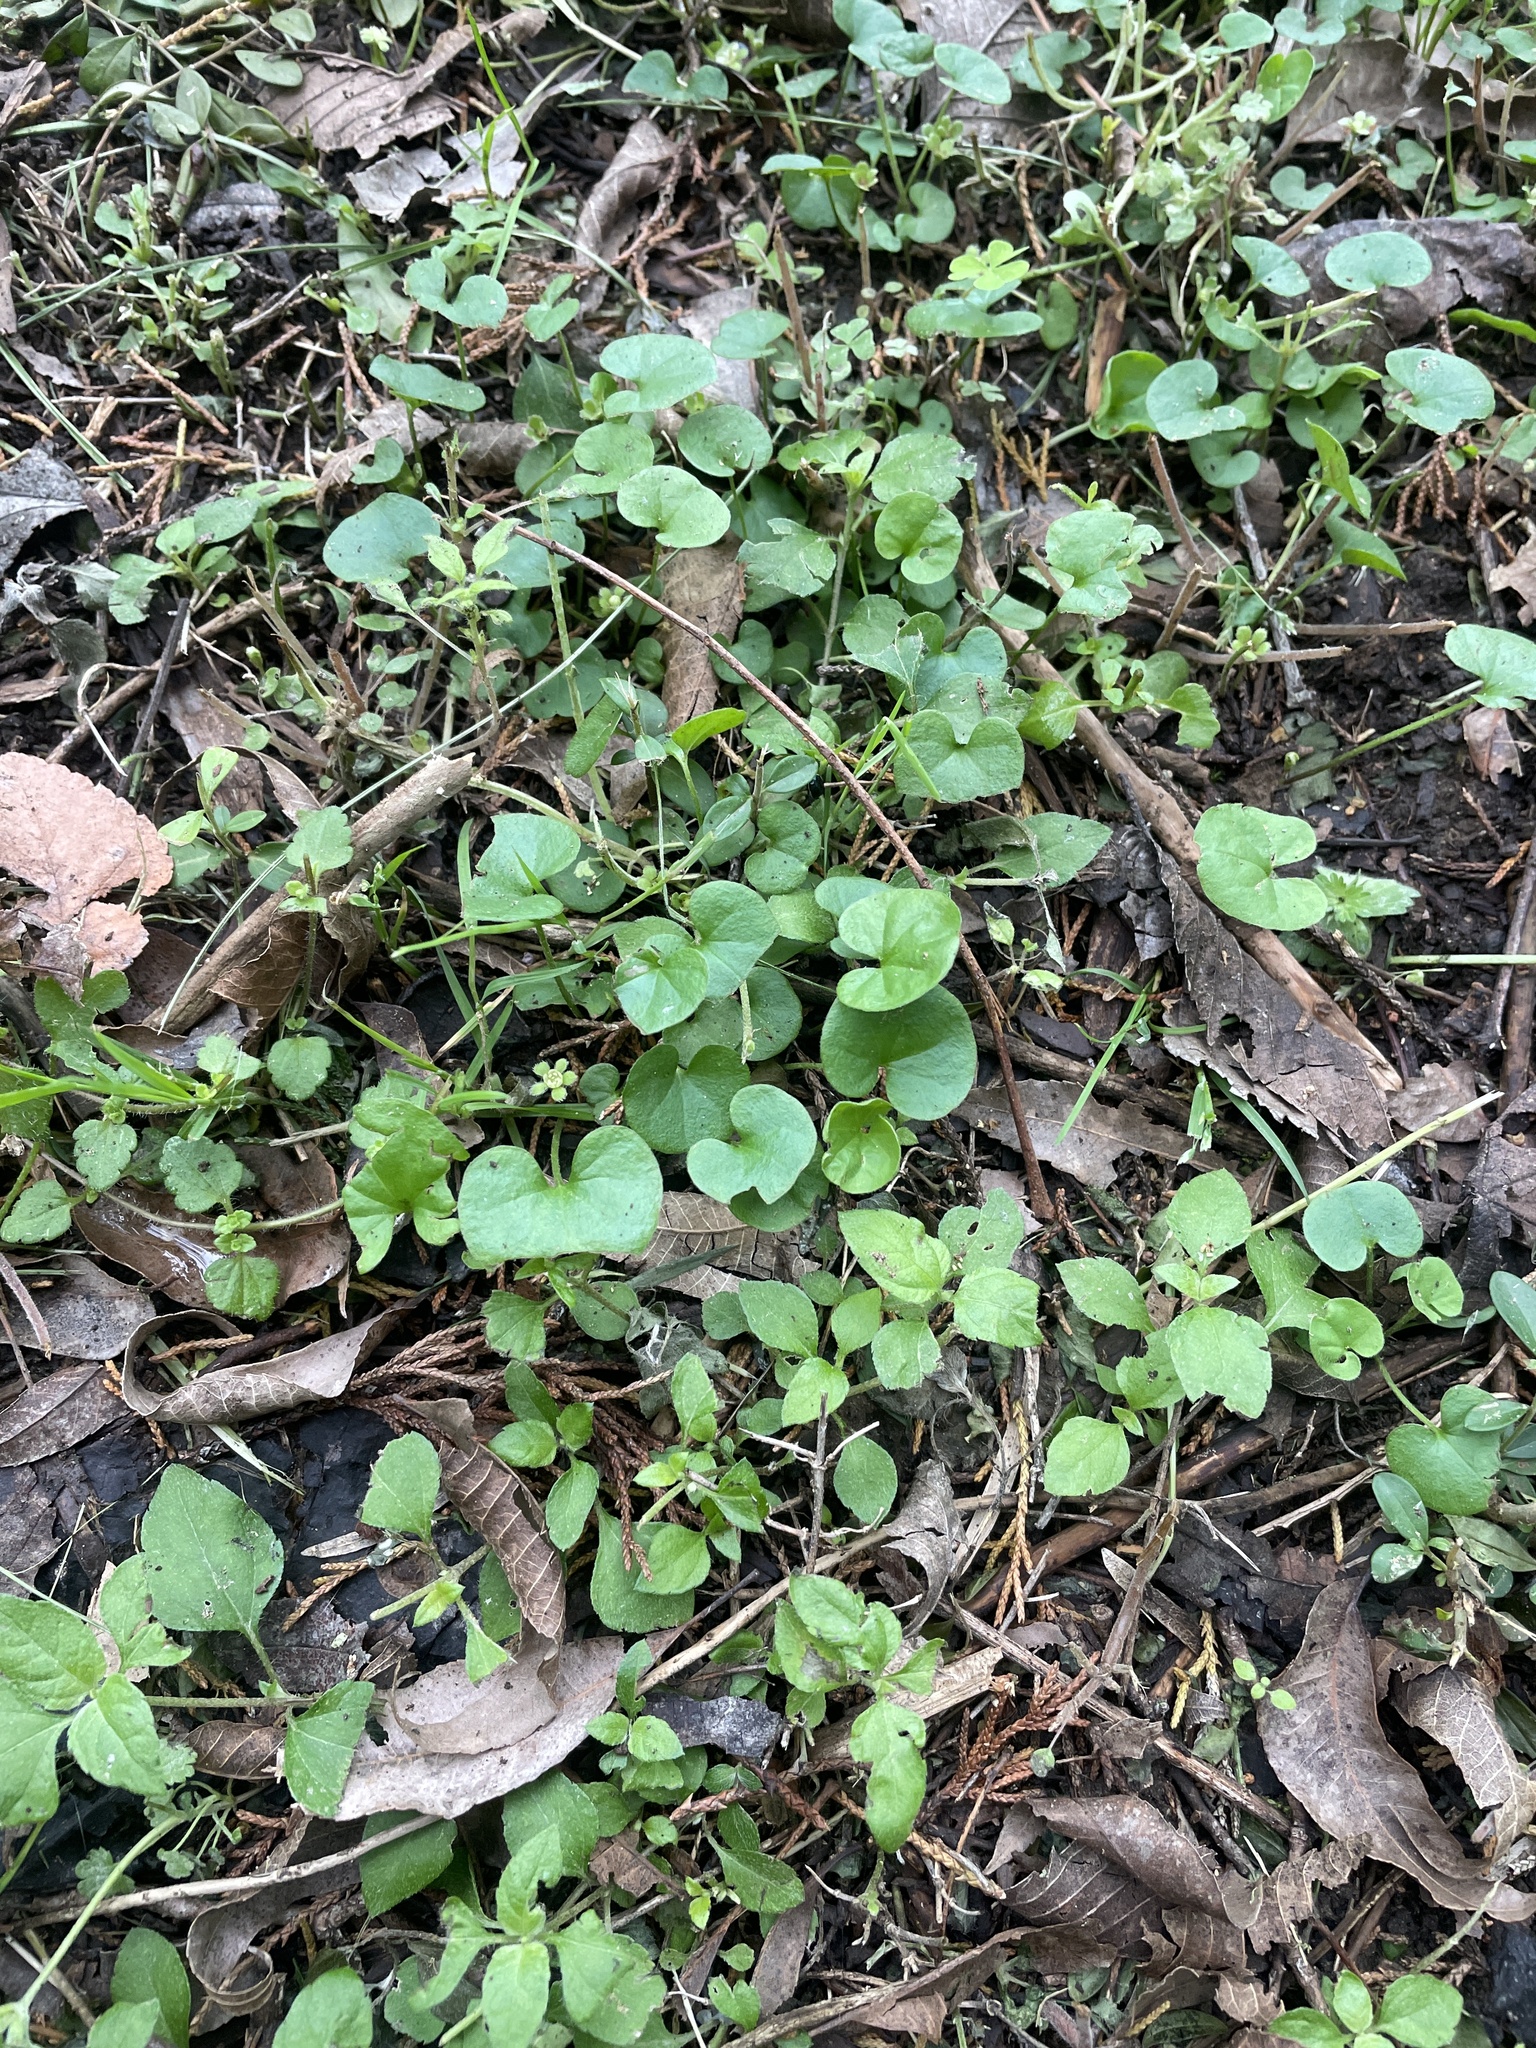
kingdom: Plantae
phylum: Tracheophyta
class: Magnoliopsida
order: Solanales
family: Convolvulaceae
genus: Dichondra
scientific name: Dichondra carolinensis
